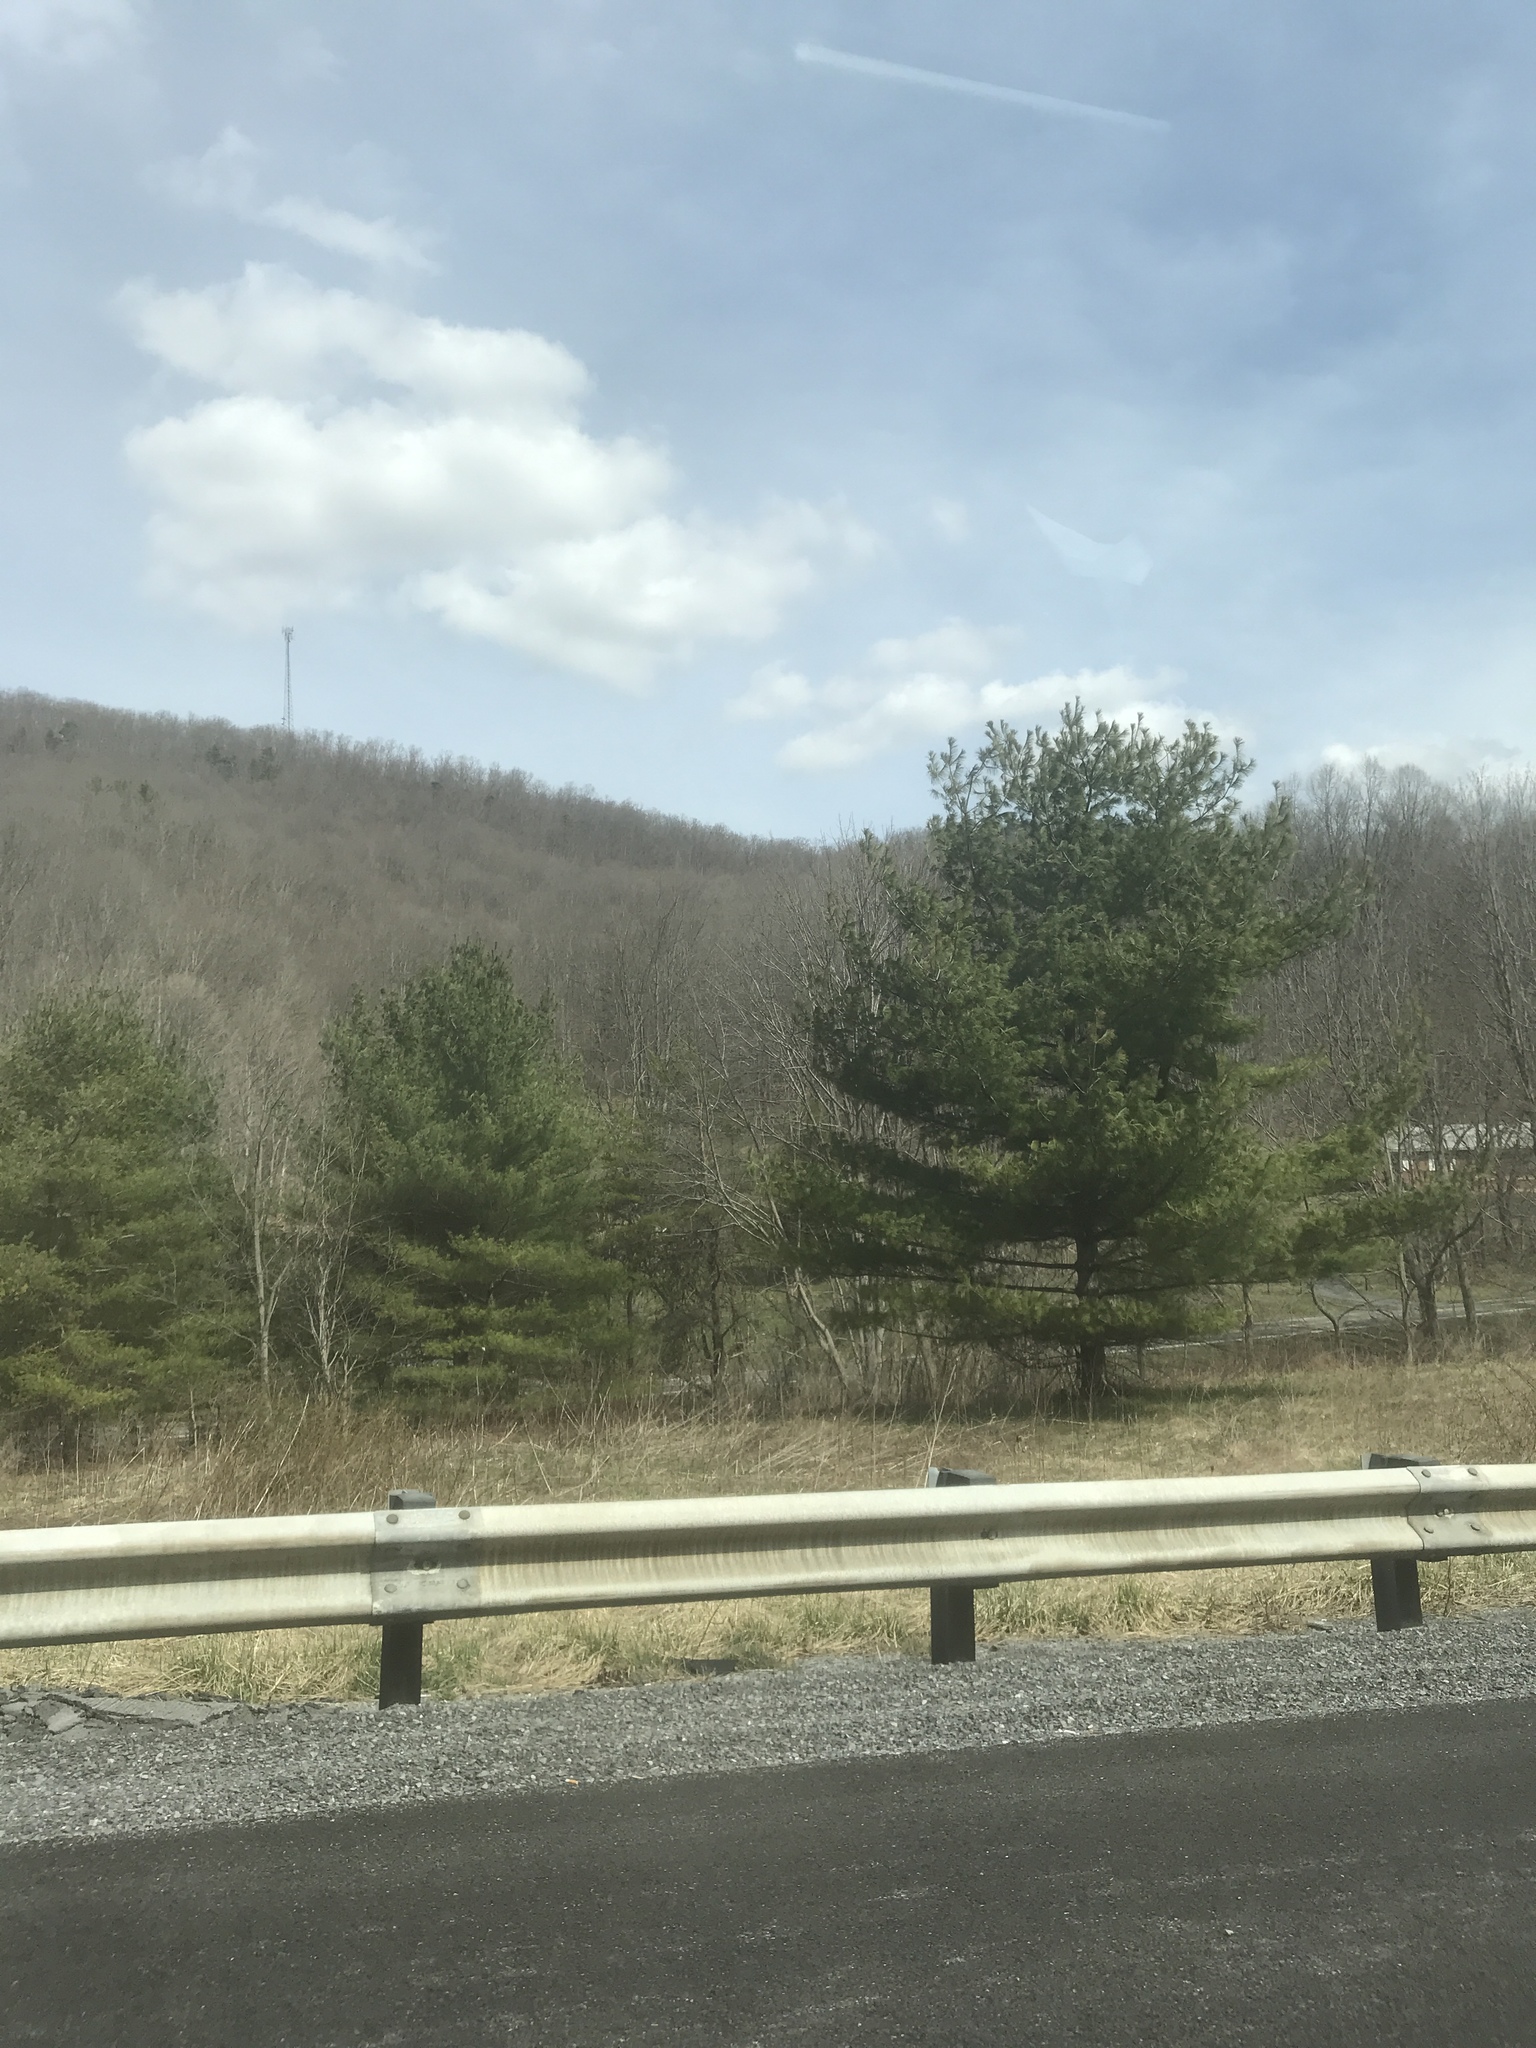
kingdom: Plantae
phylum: Tracheophyta
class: Pinopsida
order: Pinales
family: Pinaceae
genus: Pinus
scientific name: Pinus strobus
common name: Weymouth pine
